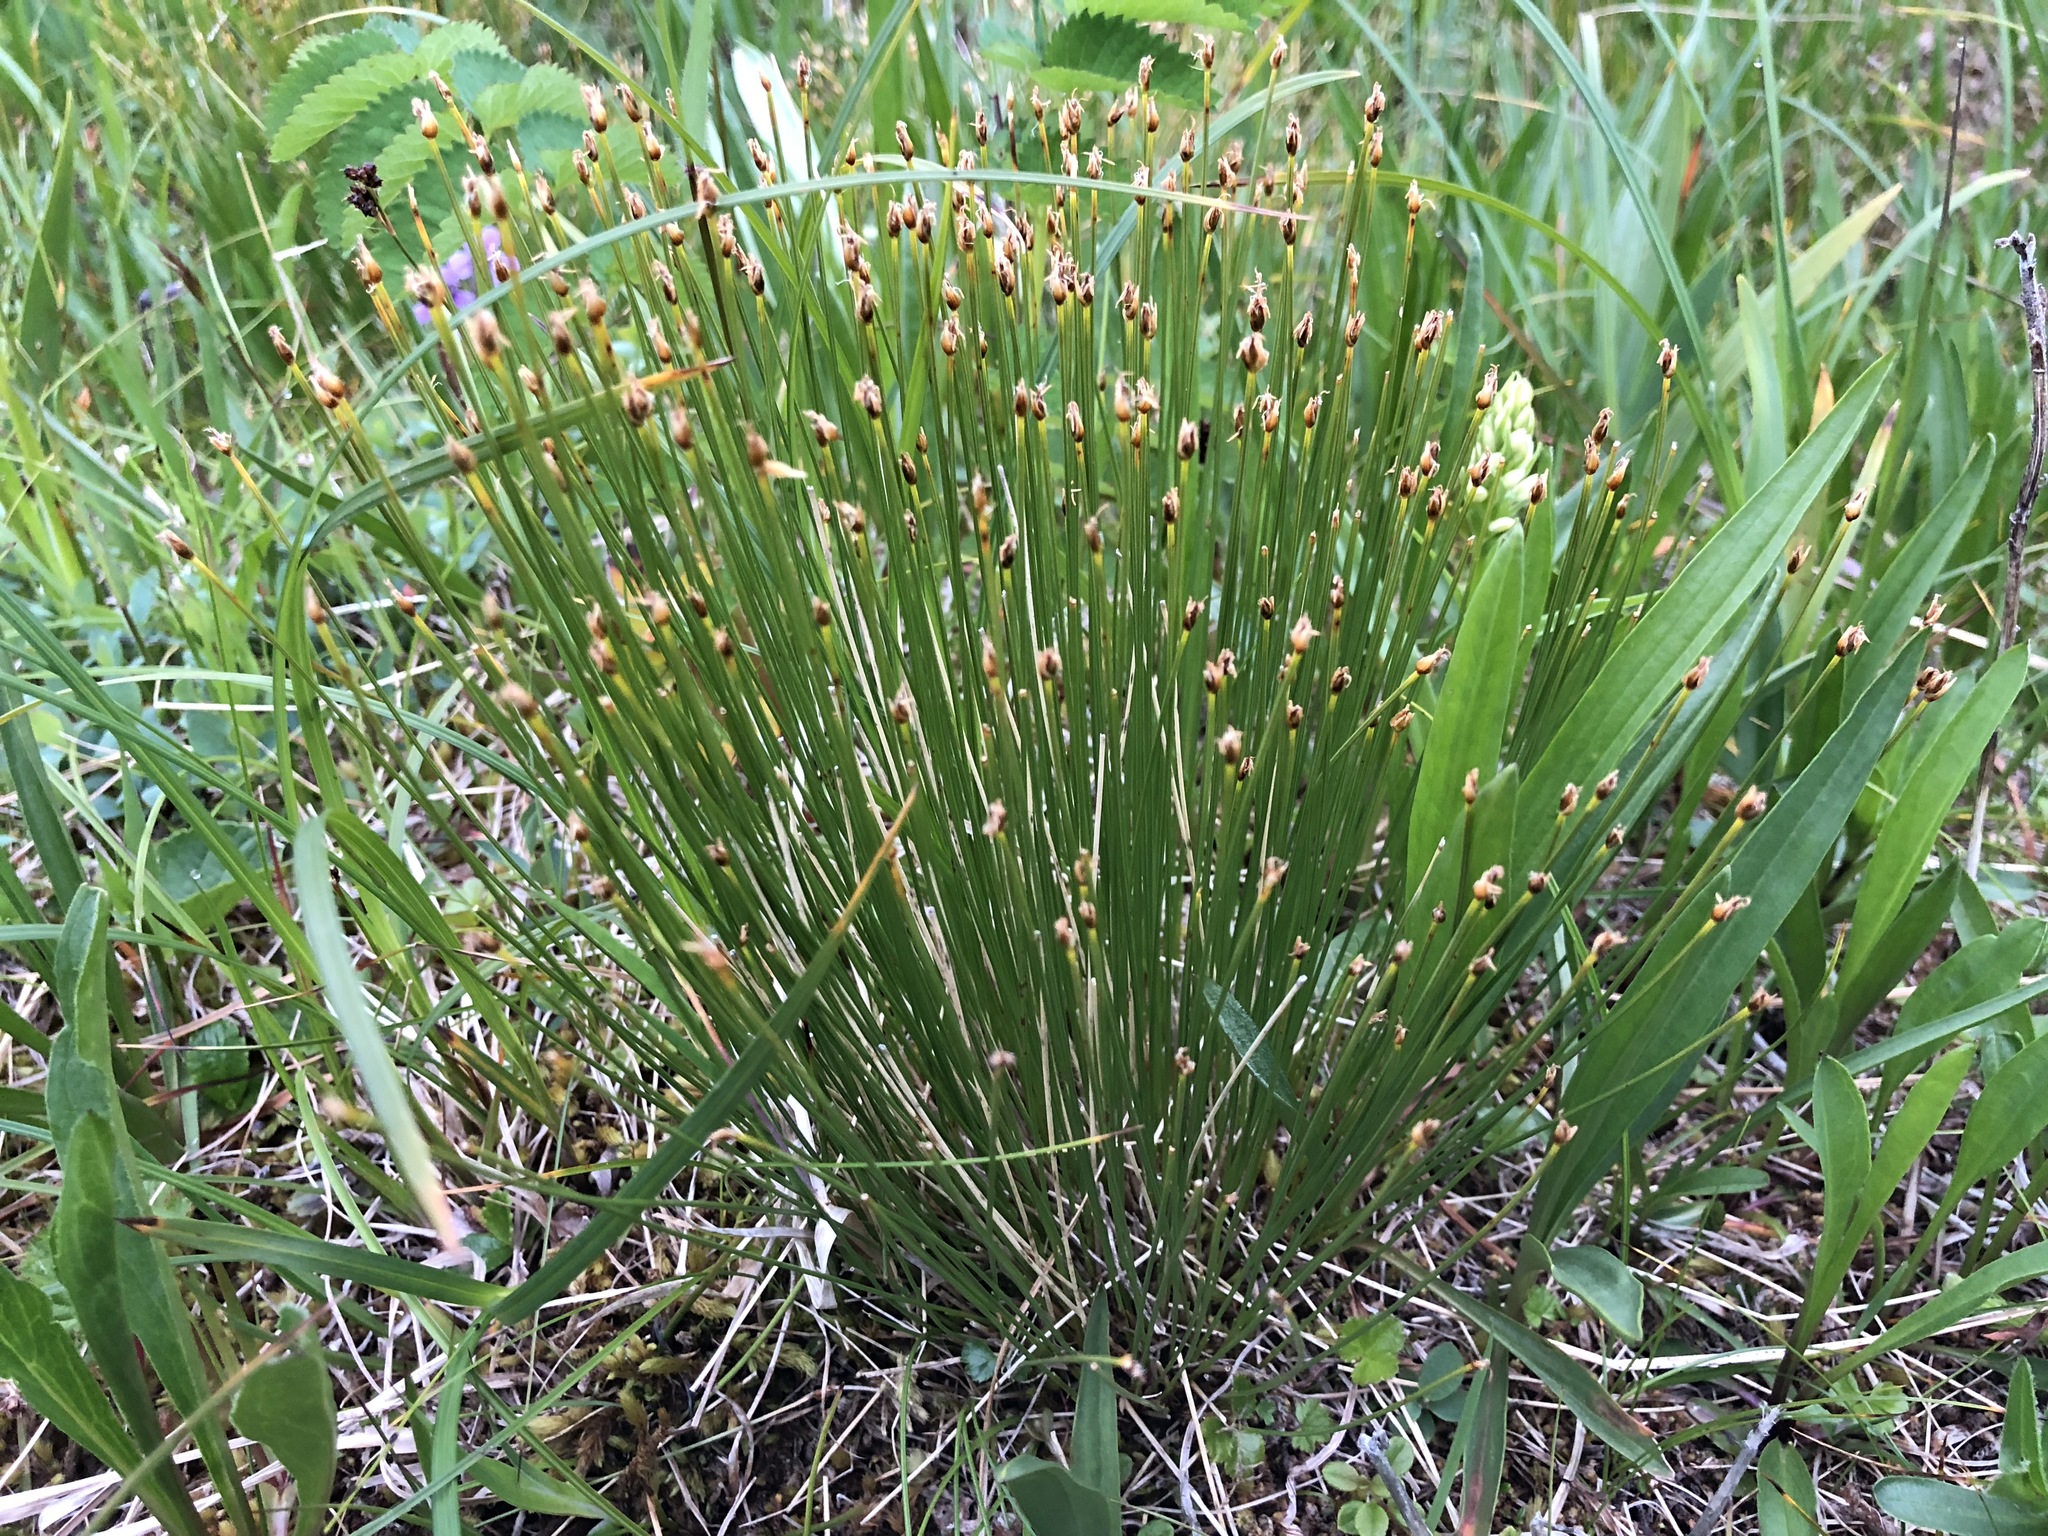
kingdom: Plantae
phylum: Tracheophyta
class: Liliopsida
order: Poales
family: Cyperaceae
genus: Trichophorum
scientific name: Trichophorum cespitosum
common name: Cespitose bulrush
